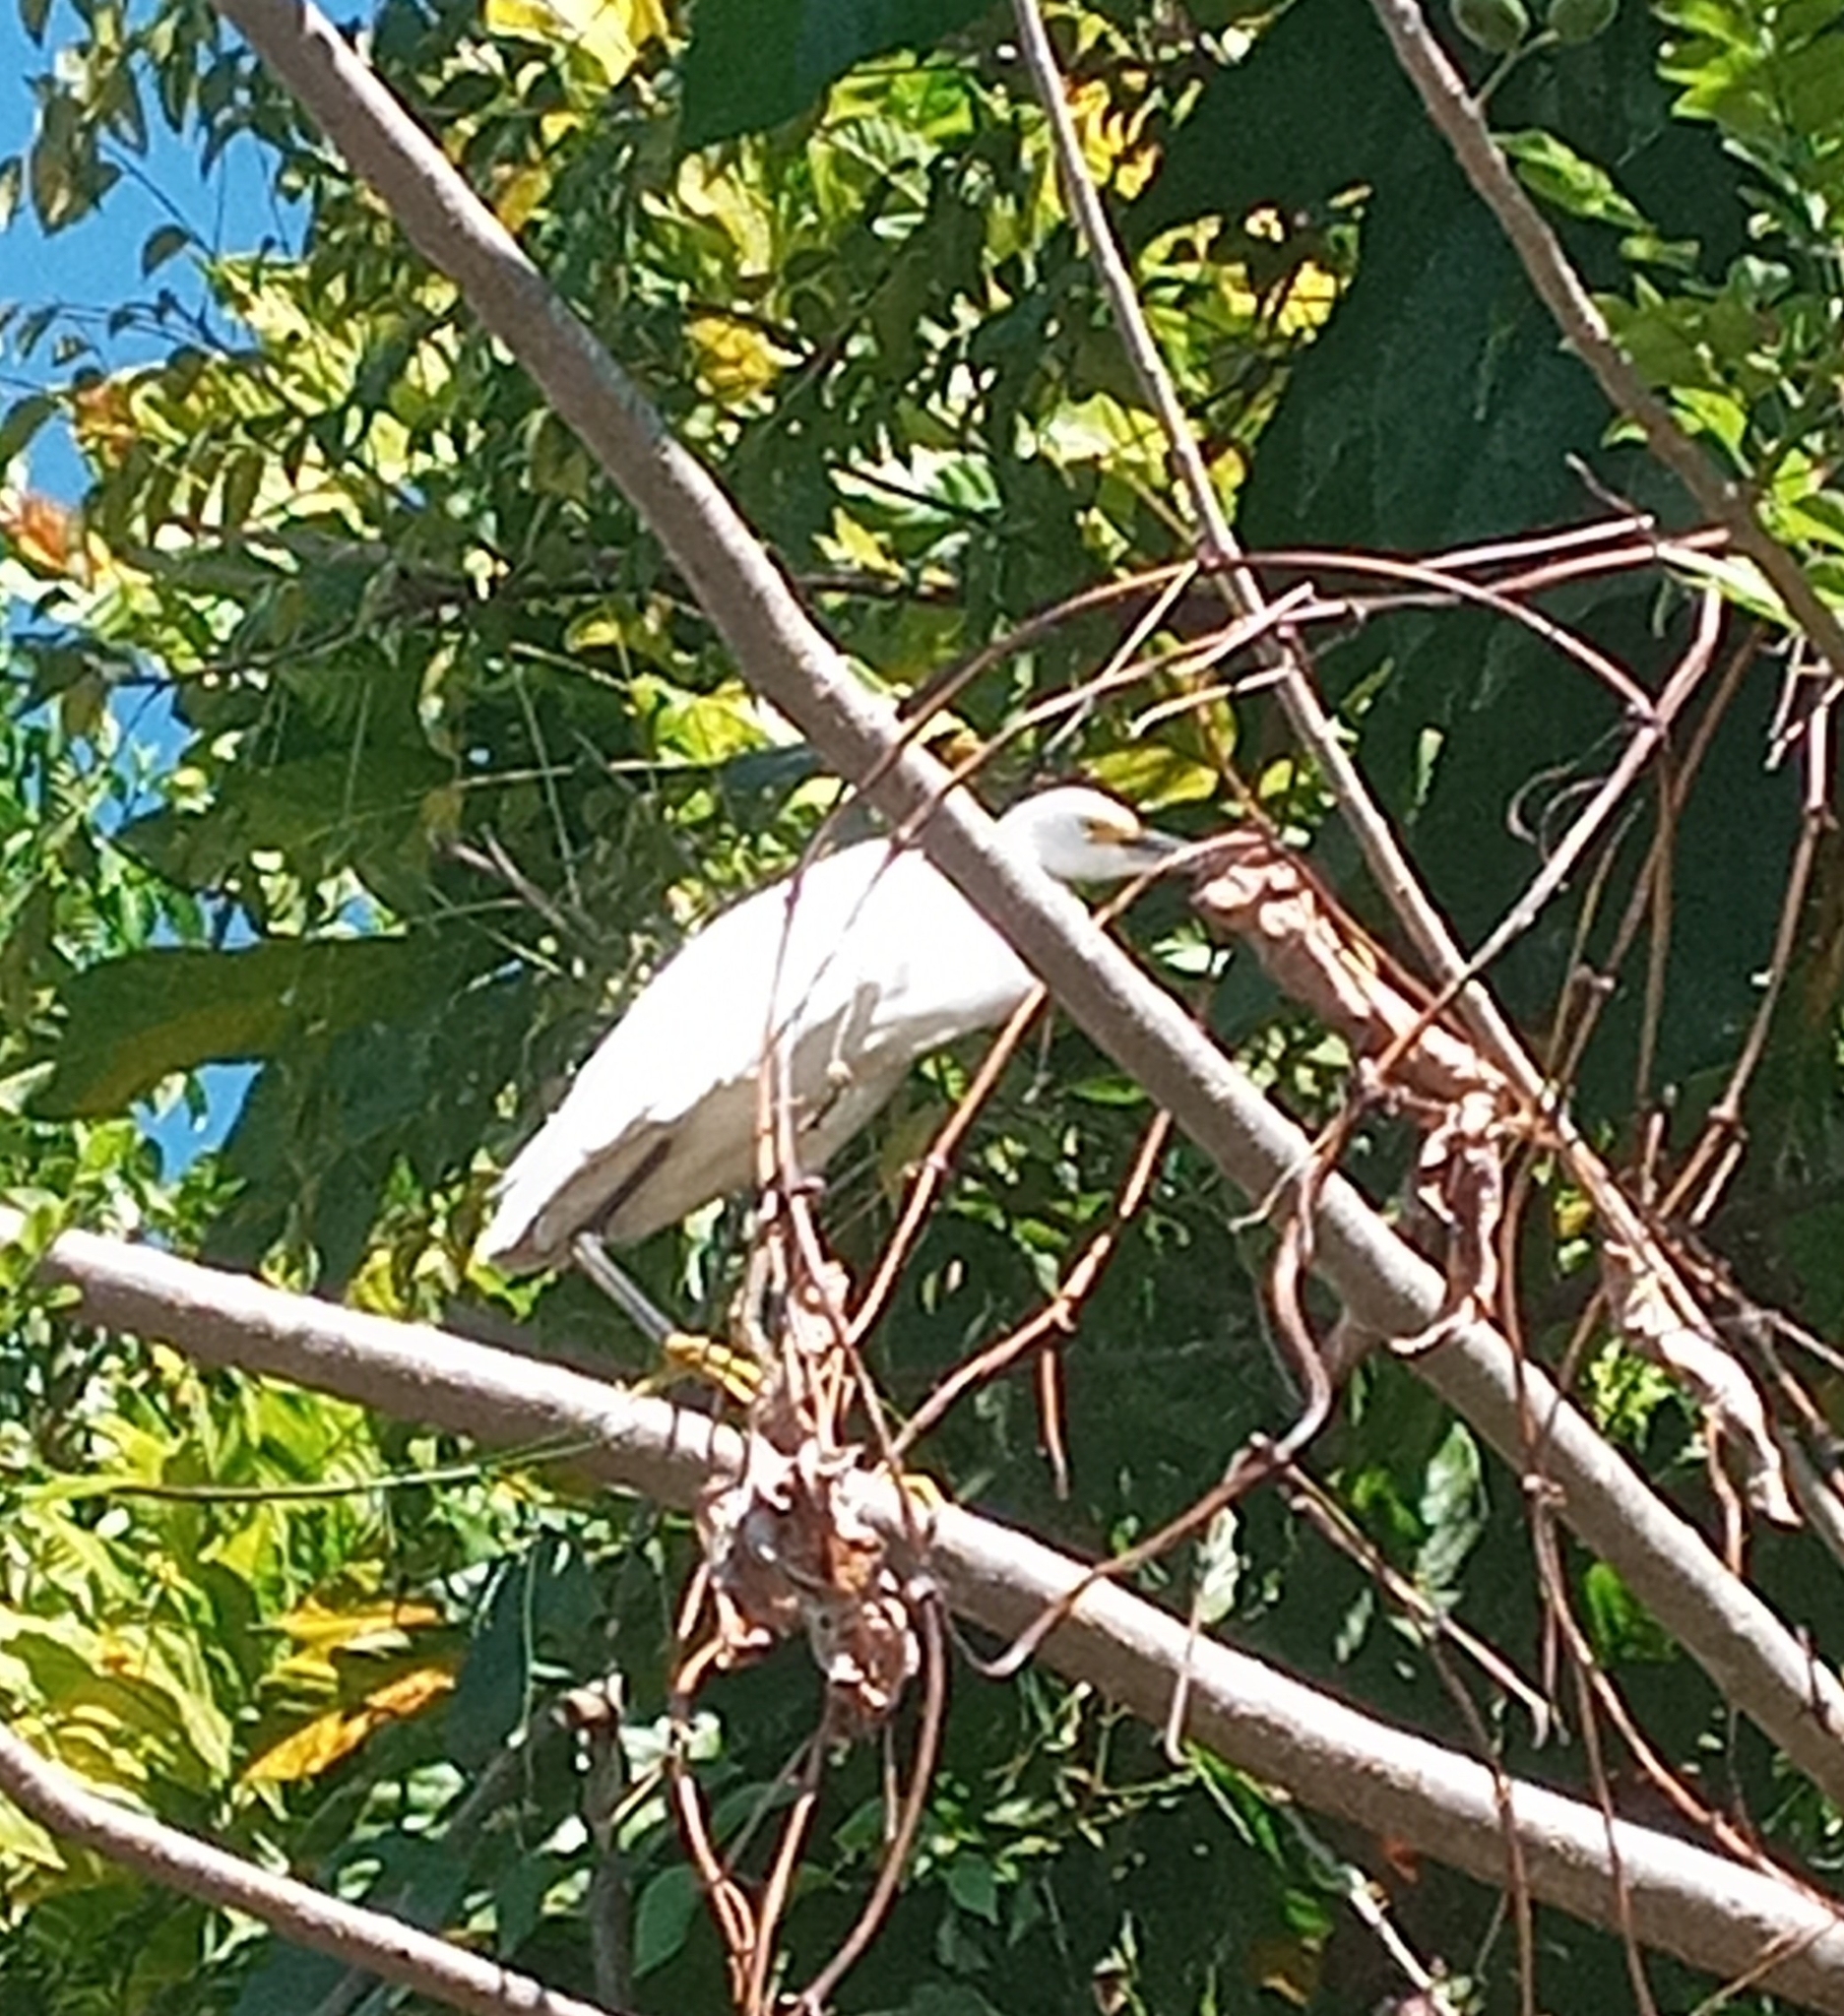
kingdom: Animalia
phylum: Chordata
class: Aves
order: Pelecaniformes
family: Ardeidae
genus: Egretta
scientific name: Egretta thula
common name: Snowy egret
